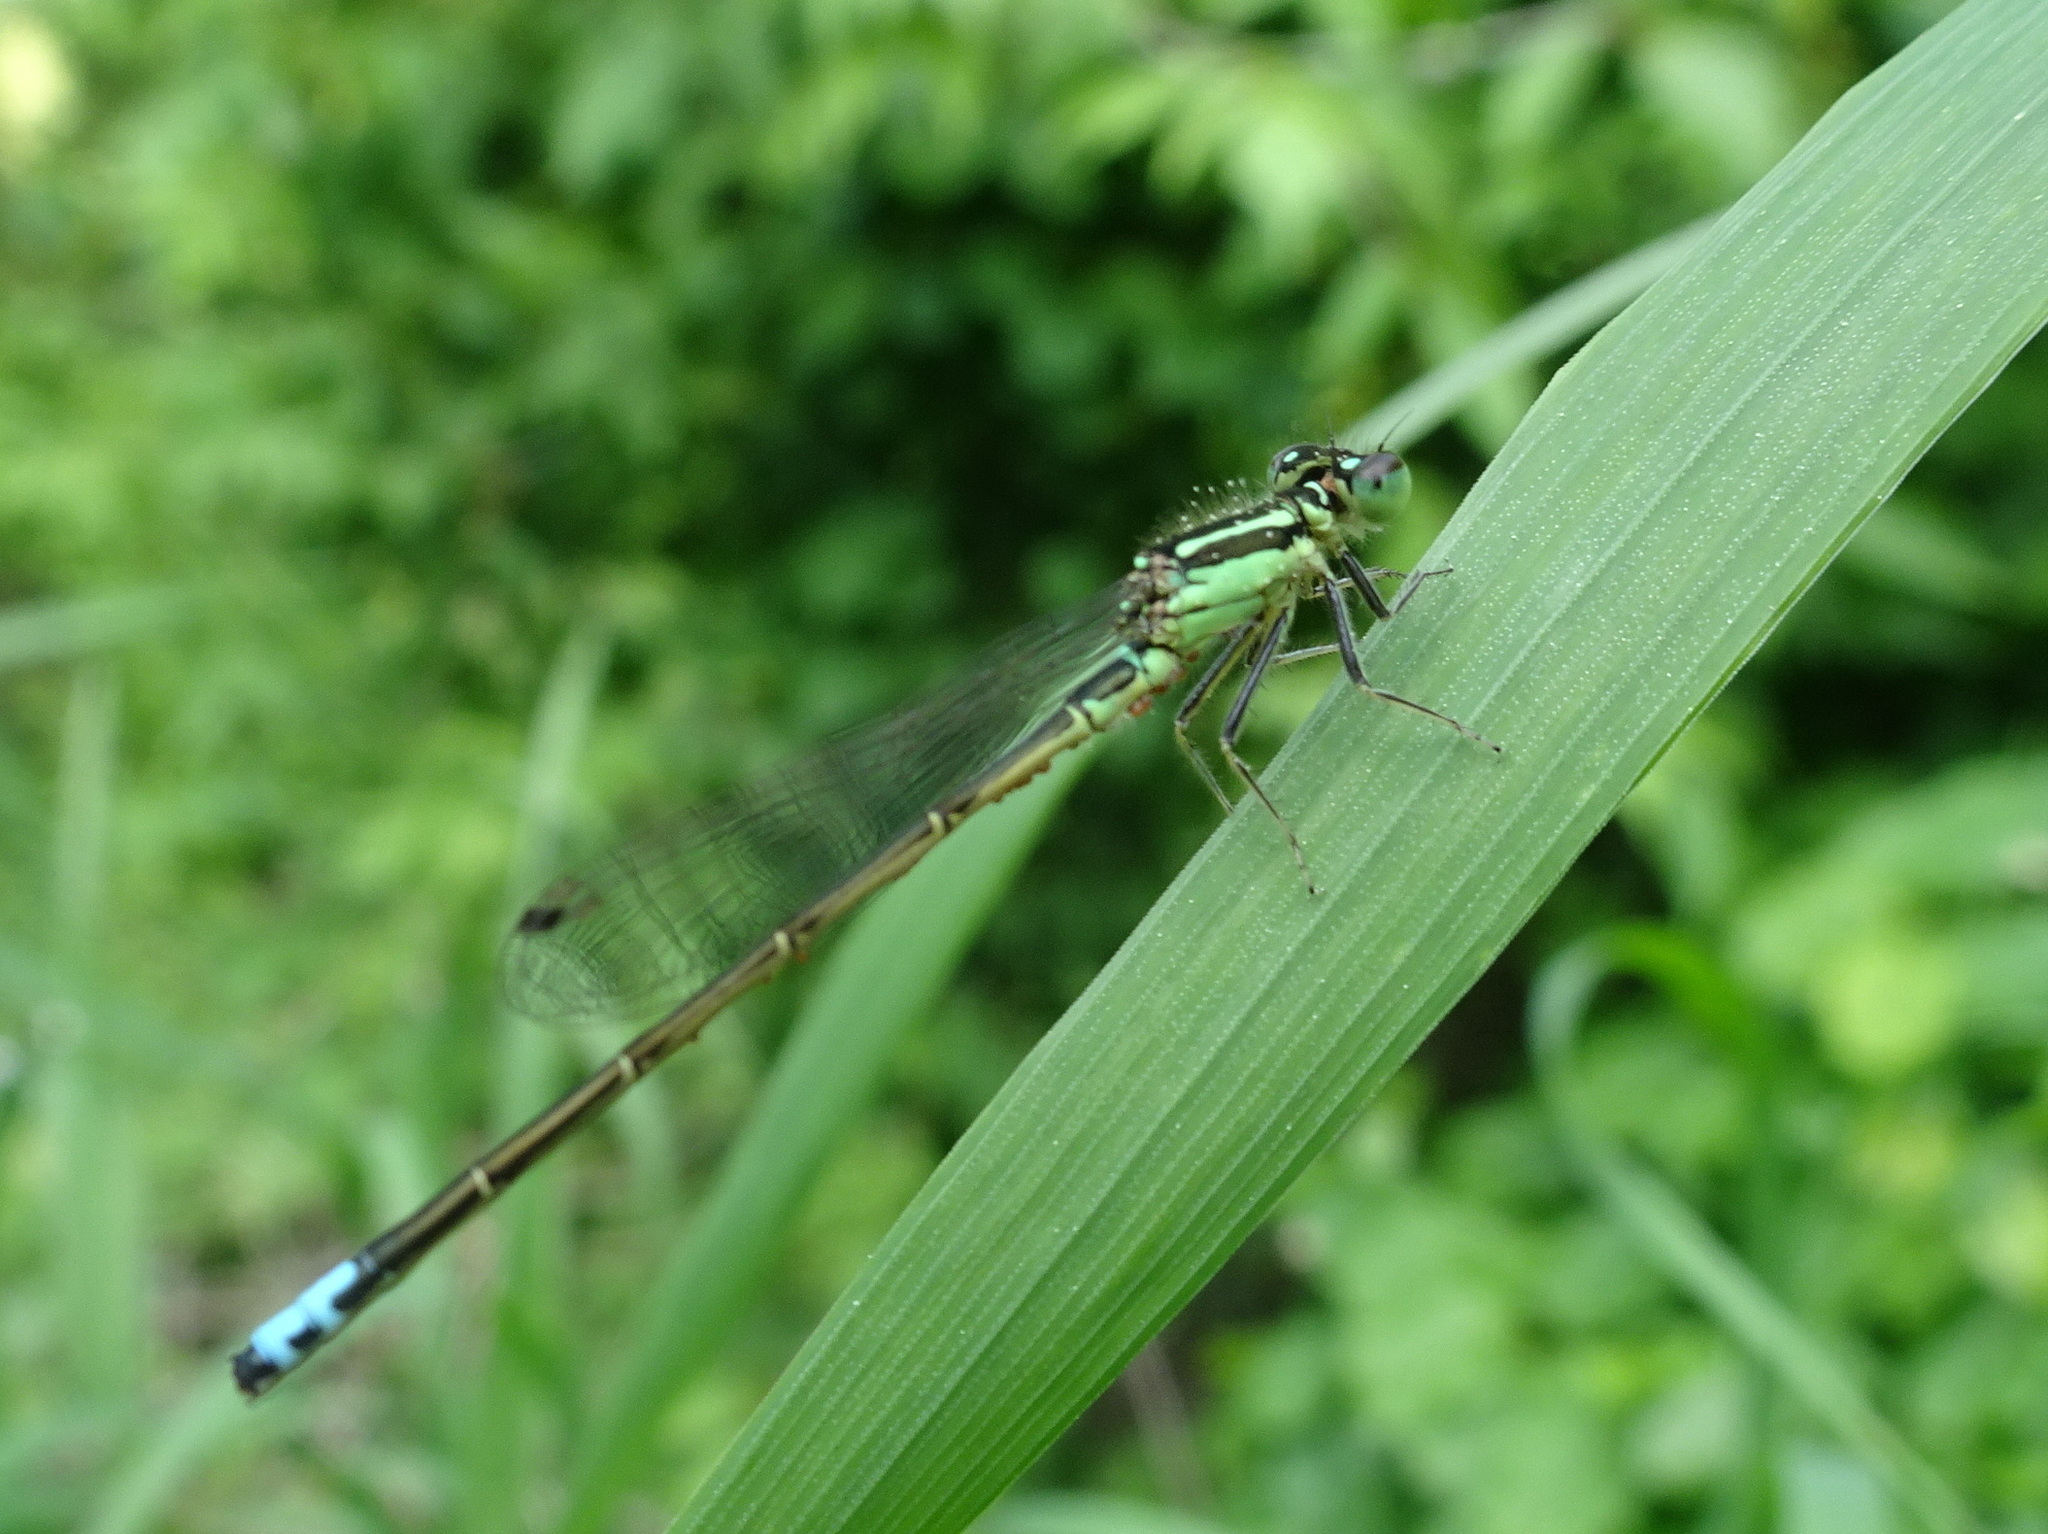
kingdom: Animalia
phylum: Arthropoda
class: Insecta
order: Odonata
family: Coenagrionidae
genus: Ischnura
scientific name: Ischnura verticalis
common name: Eastern forktail
